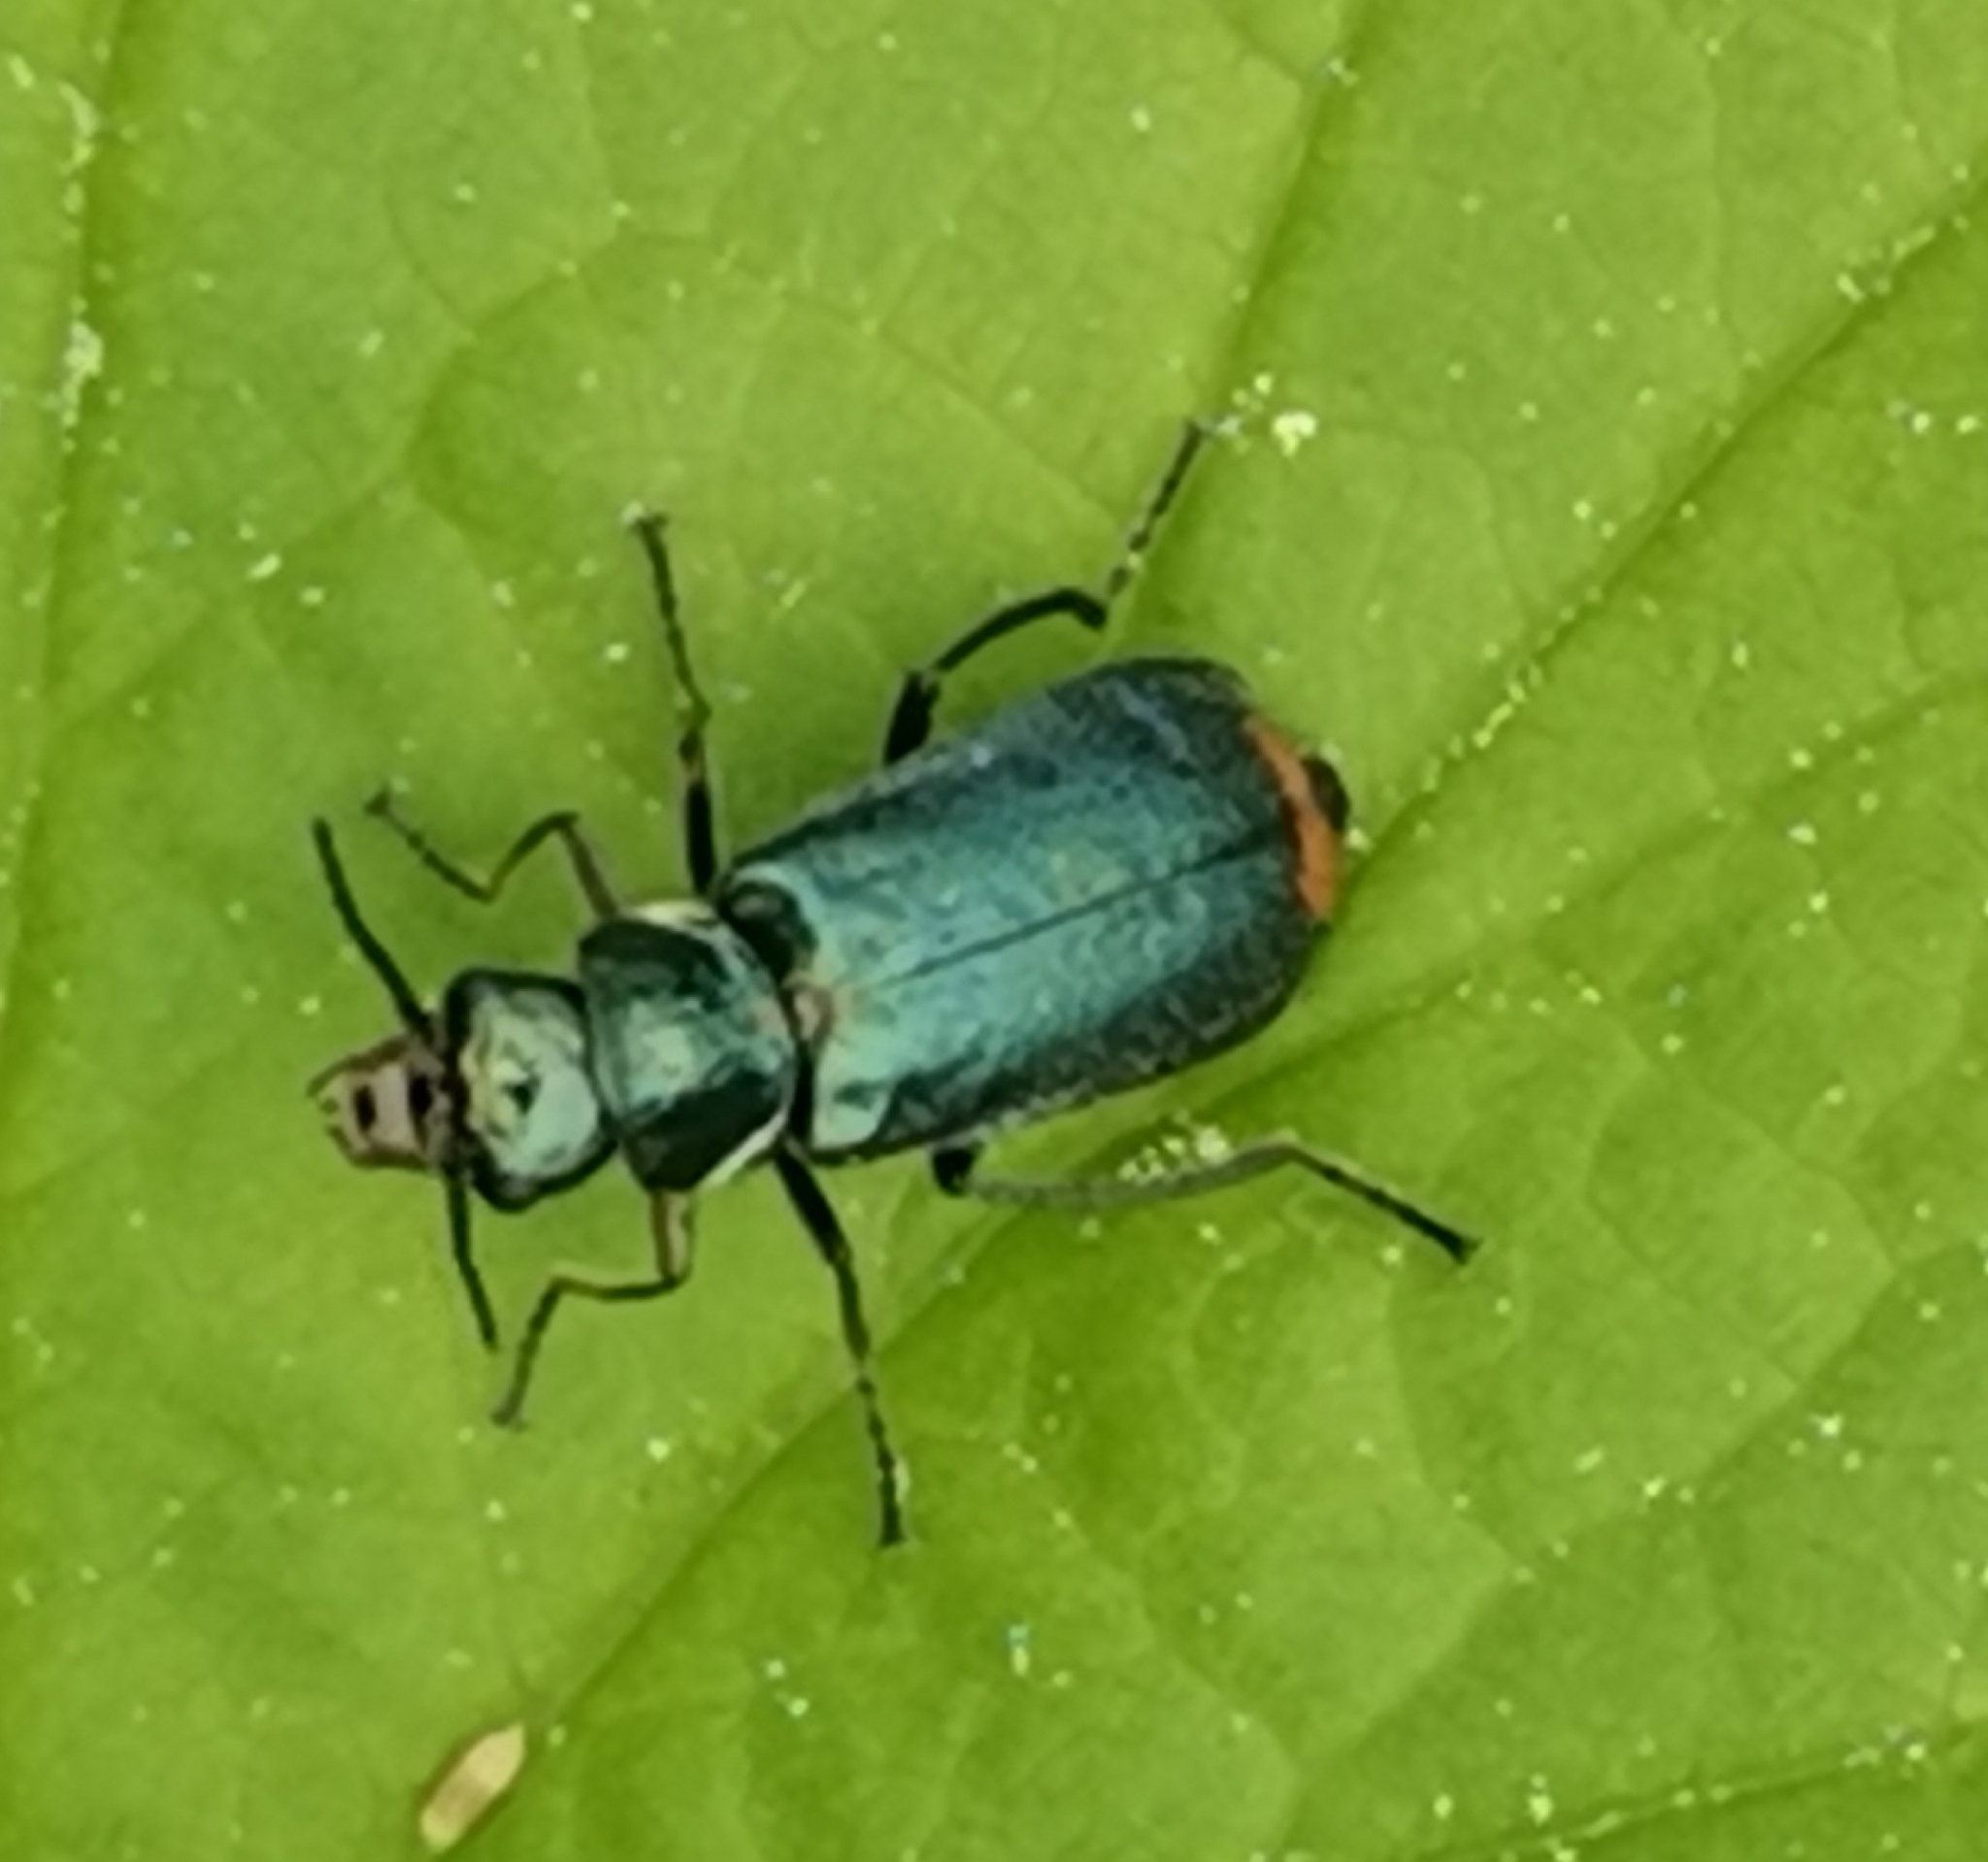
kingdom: Animalia
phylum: Arthropoda
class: Insecta
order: Coleoptera
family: Melyridae
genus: Malachius
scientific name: Malachius bipustulatus
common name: Malachite beetle
